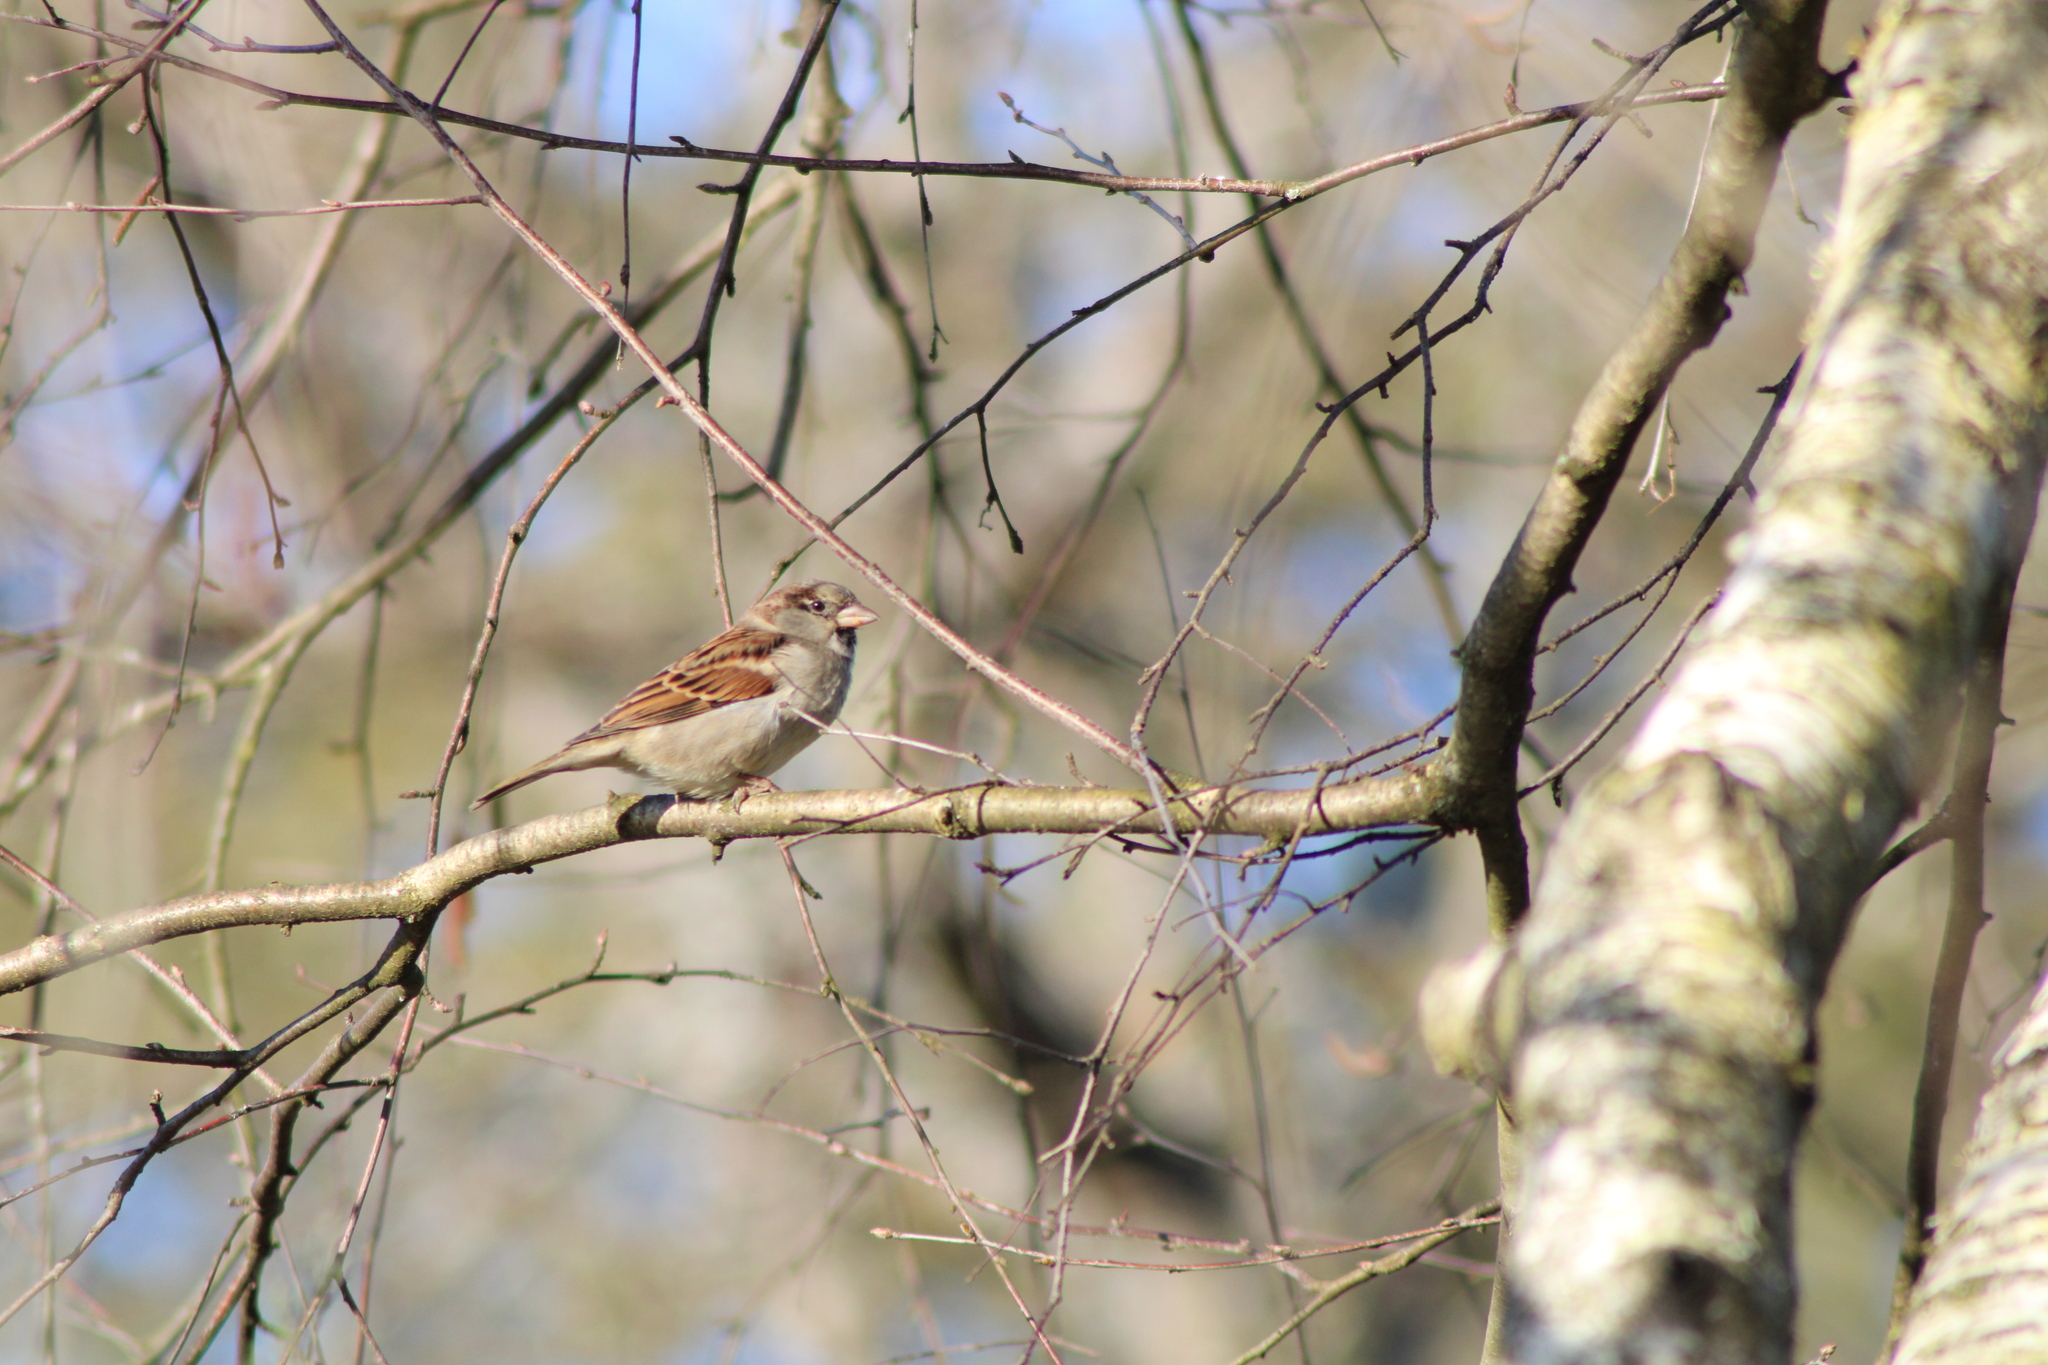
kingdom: Animalia
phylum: Chordata
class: Aves
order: Passeriformes
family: Passeridae
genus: Passer
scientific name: Passer domesticus
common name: House sparrow
